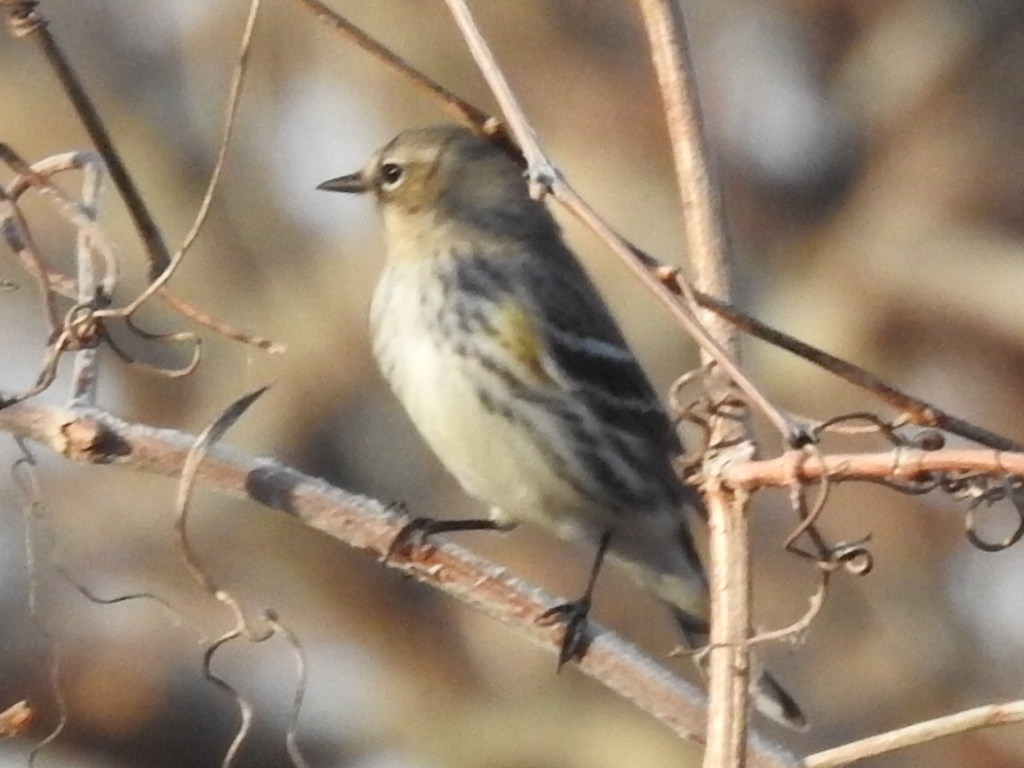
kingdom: Animalia
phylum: Chordata
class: Aves
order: Passeriformes
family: Parulidae
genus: Setophaga
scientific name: Setophaga coronata
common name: Myrtle warbler
